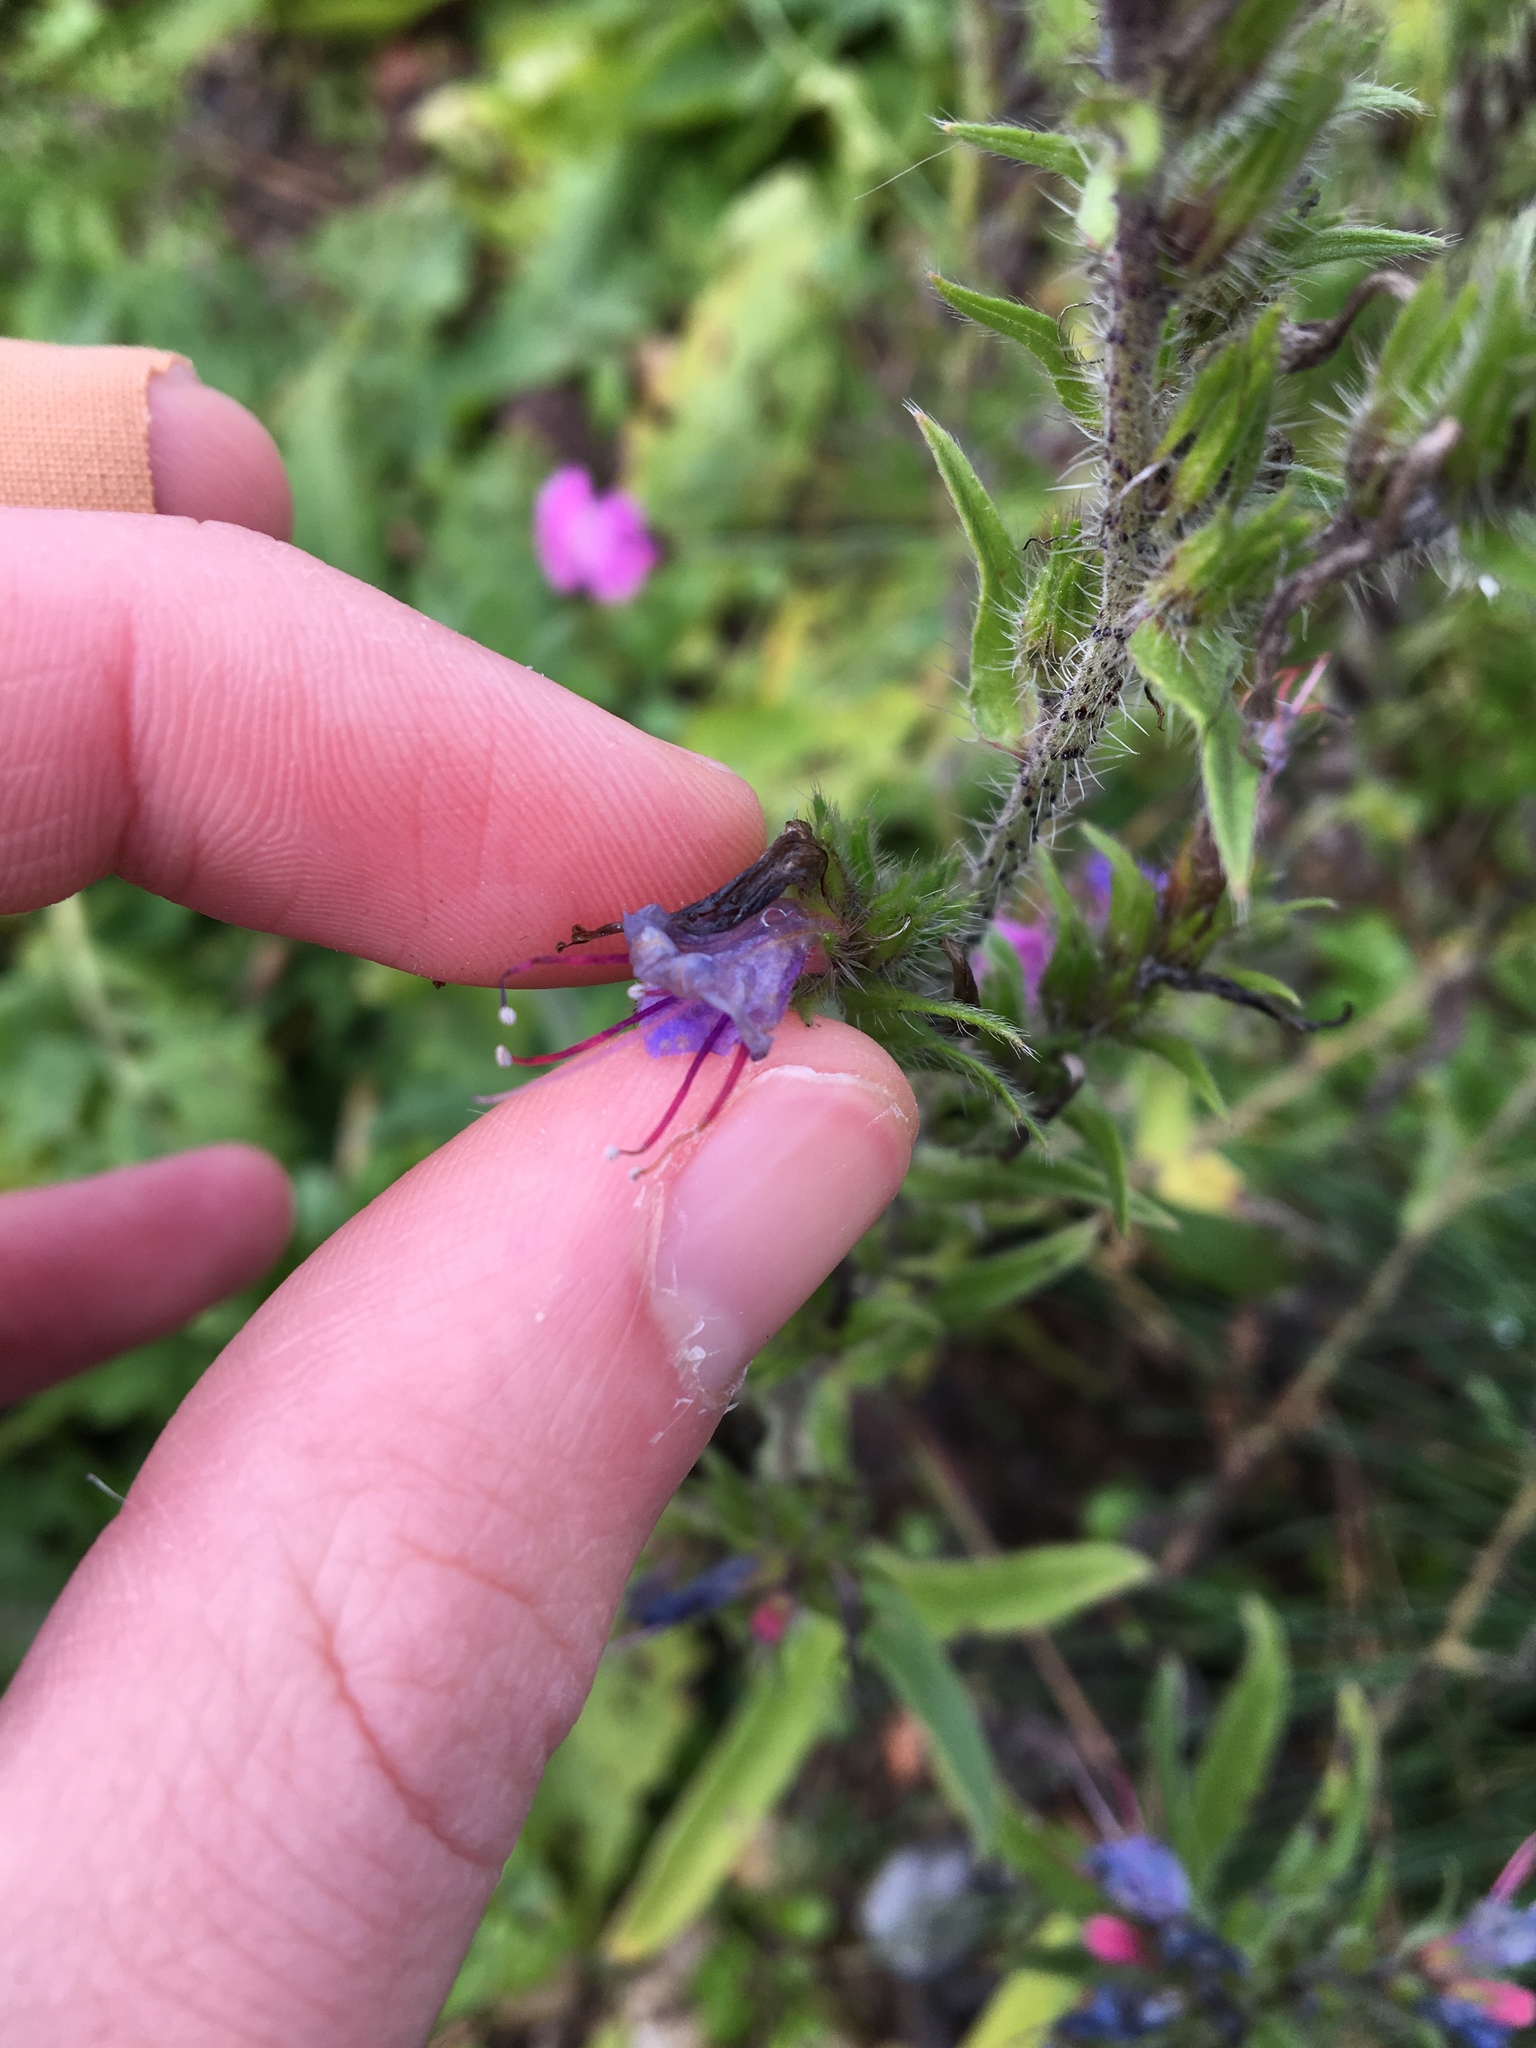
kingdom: Plantae
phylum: Tracheophyta
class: Magnoliopsida
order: Boraginales
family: Boraginaceae
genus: Echium
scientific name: Echium vulgare
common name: Common viper's bugloss
